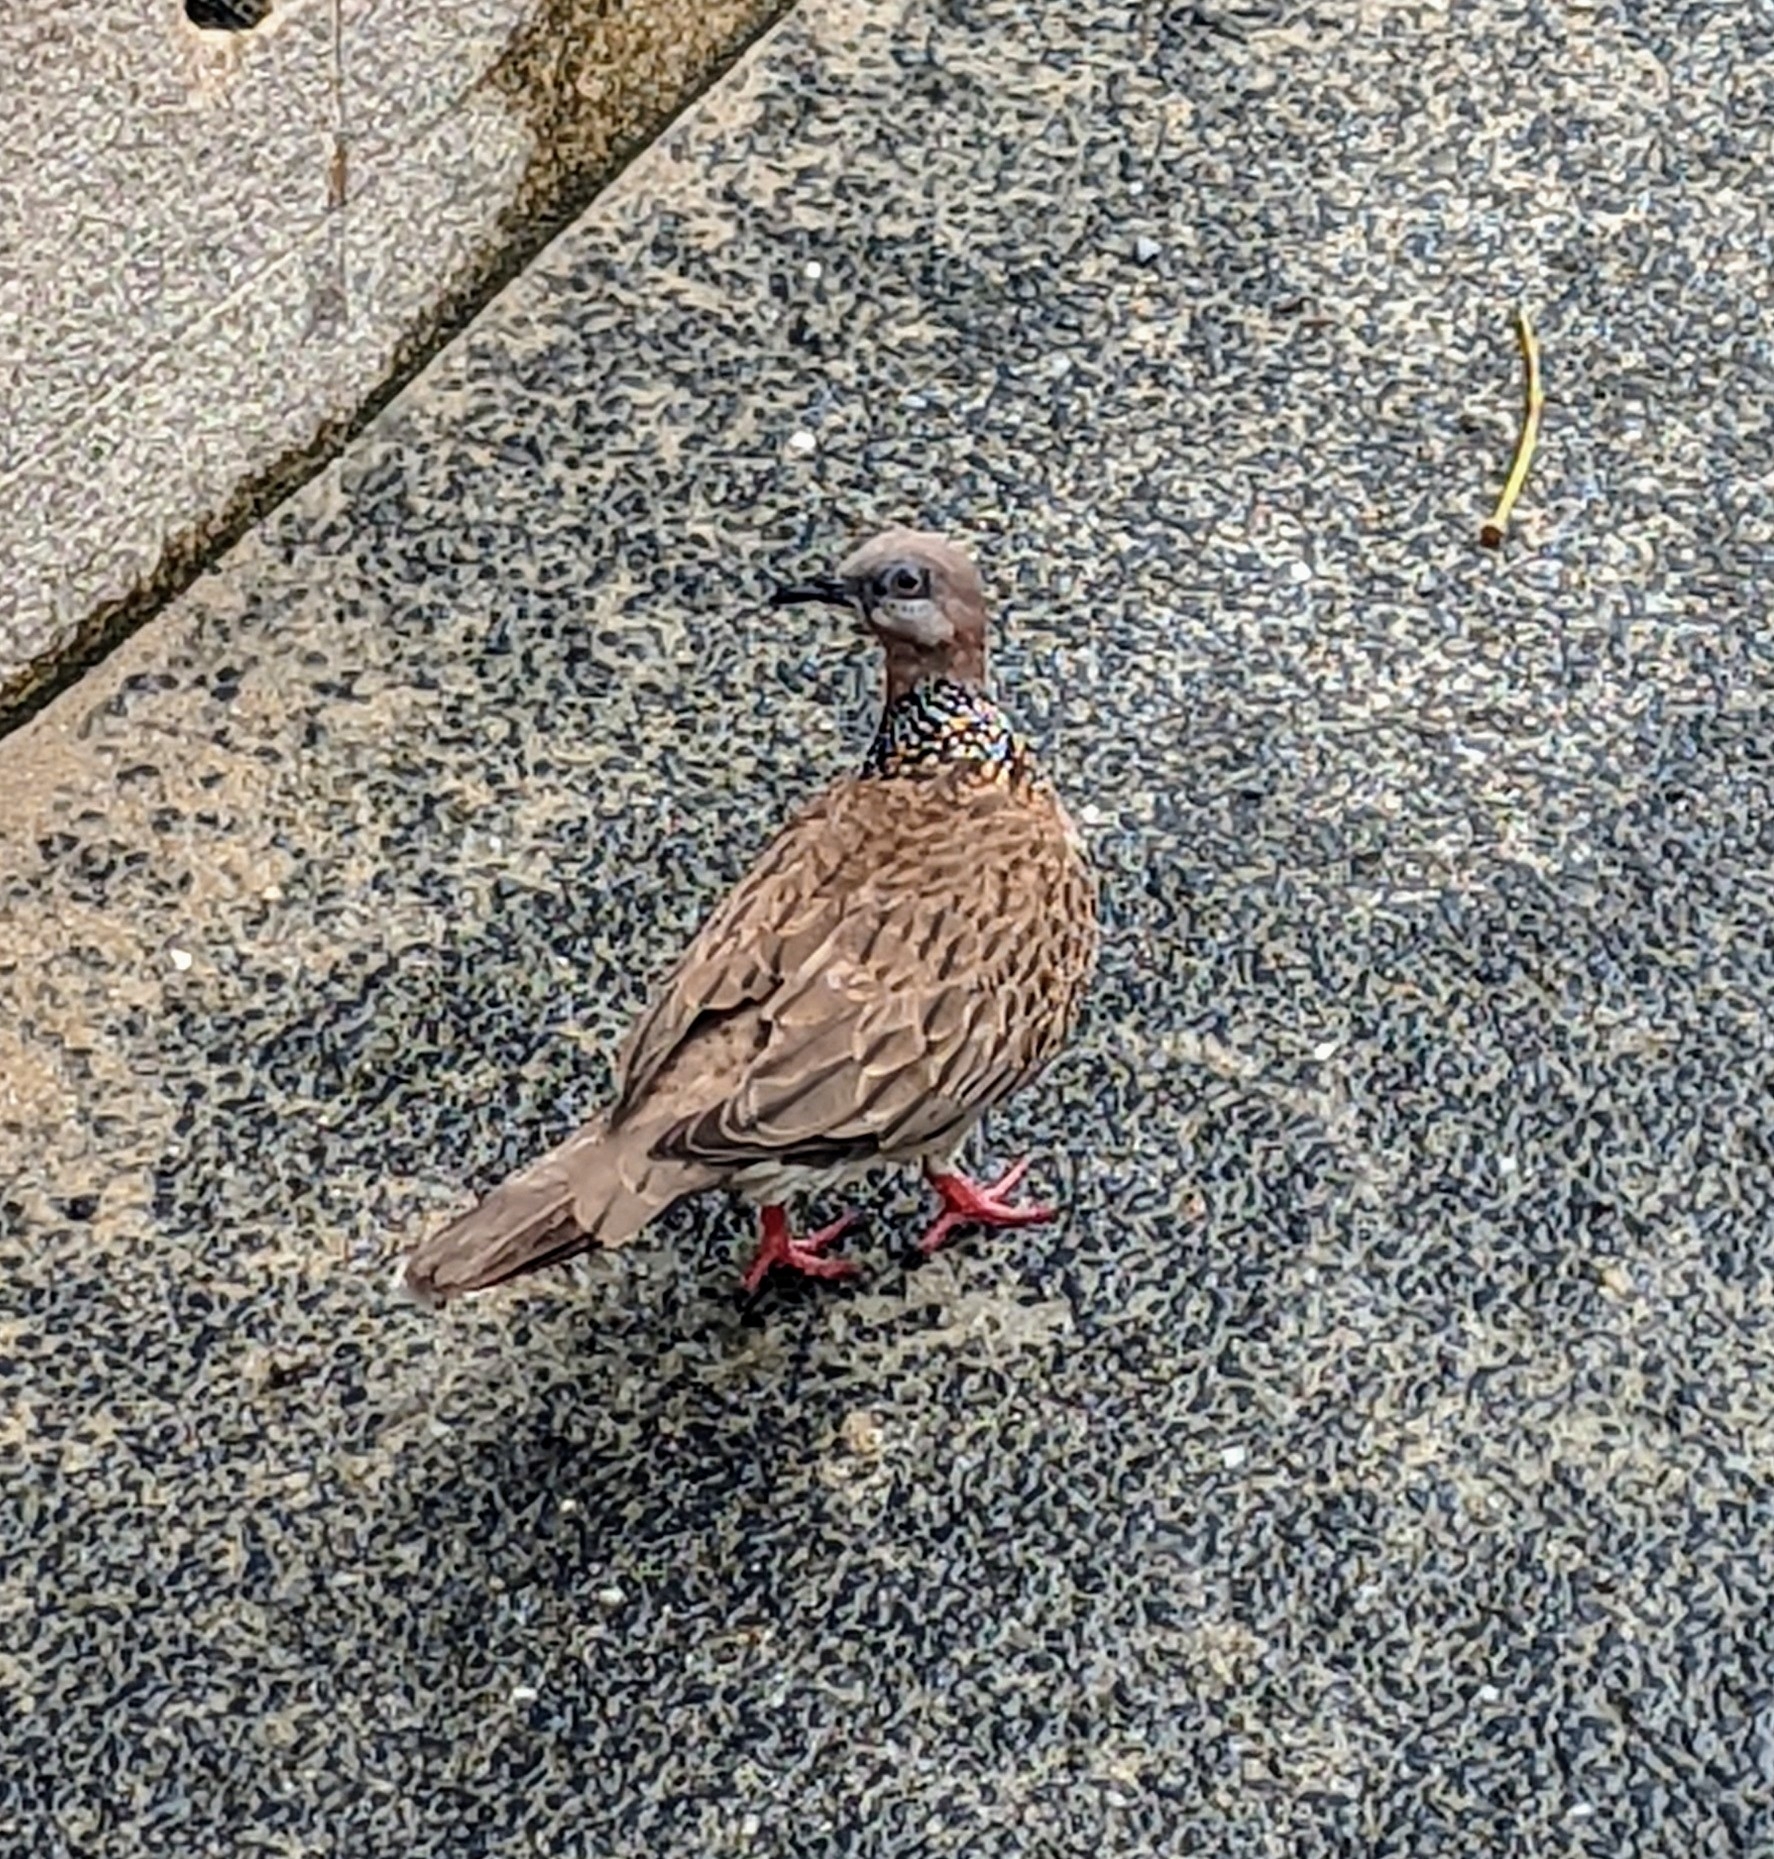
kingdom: Animalia
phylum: Chordata
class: Aves
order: Columbiformes
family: Columbidae
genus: Spilopelia
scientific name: Spilopelia chinensis
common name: Spotted dove
